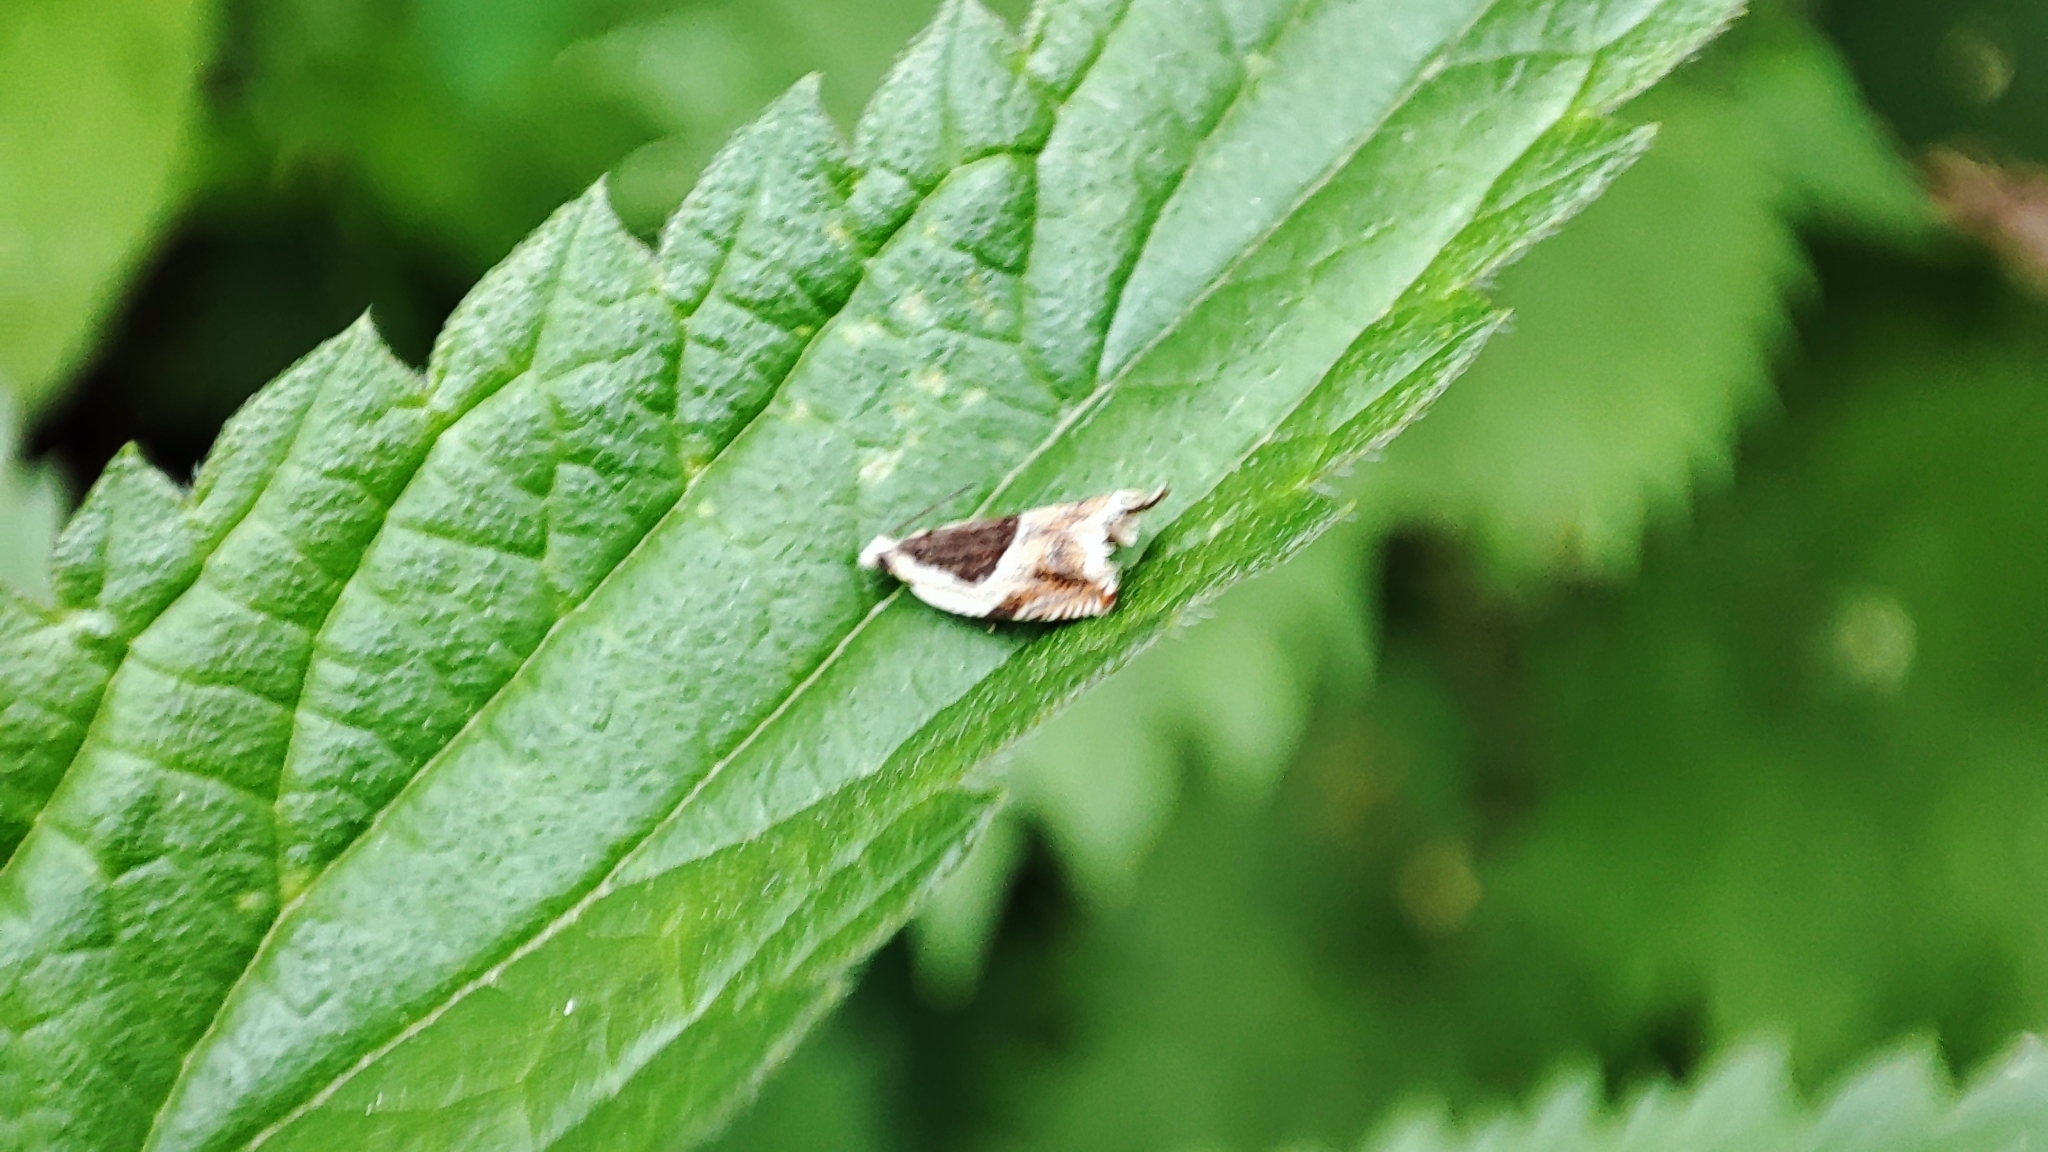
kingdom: Animalia
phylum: Arthropoda
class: Insecta
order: Lepidoptera
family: Tortricidae
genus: Ancylis
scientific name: Ancylis badiana
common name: Common roller
